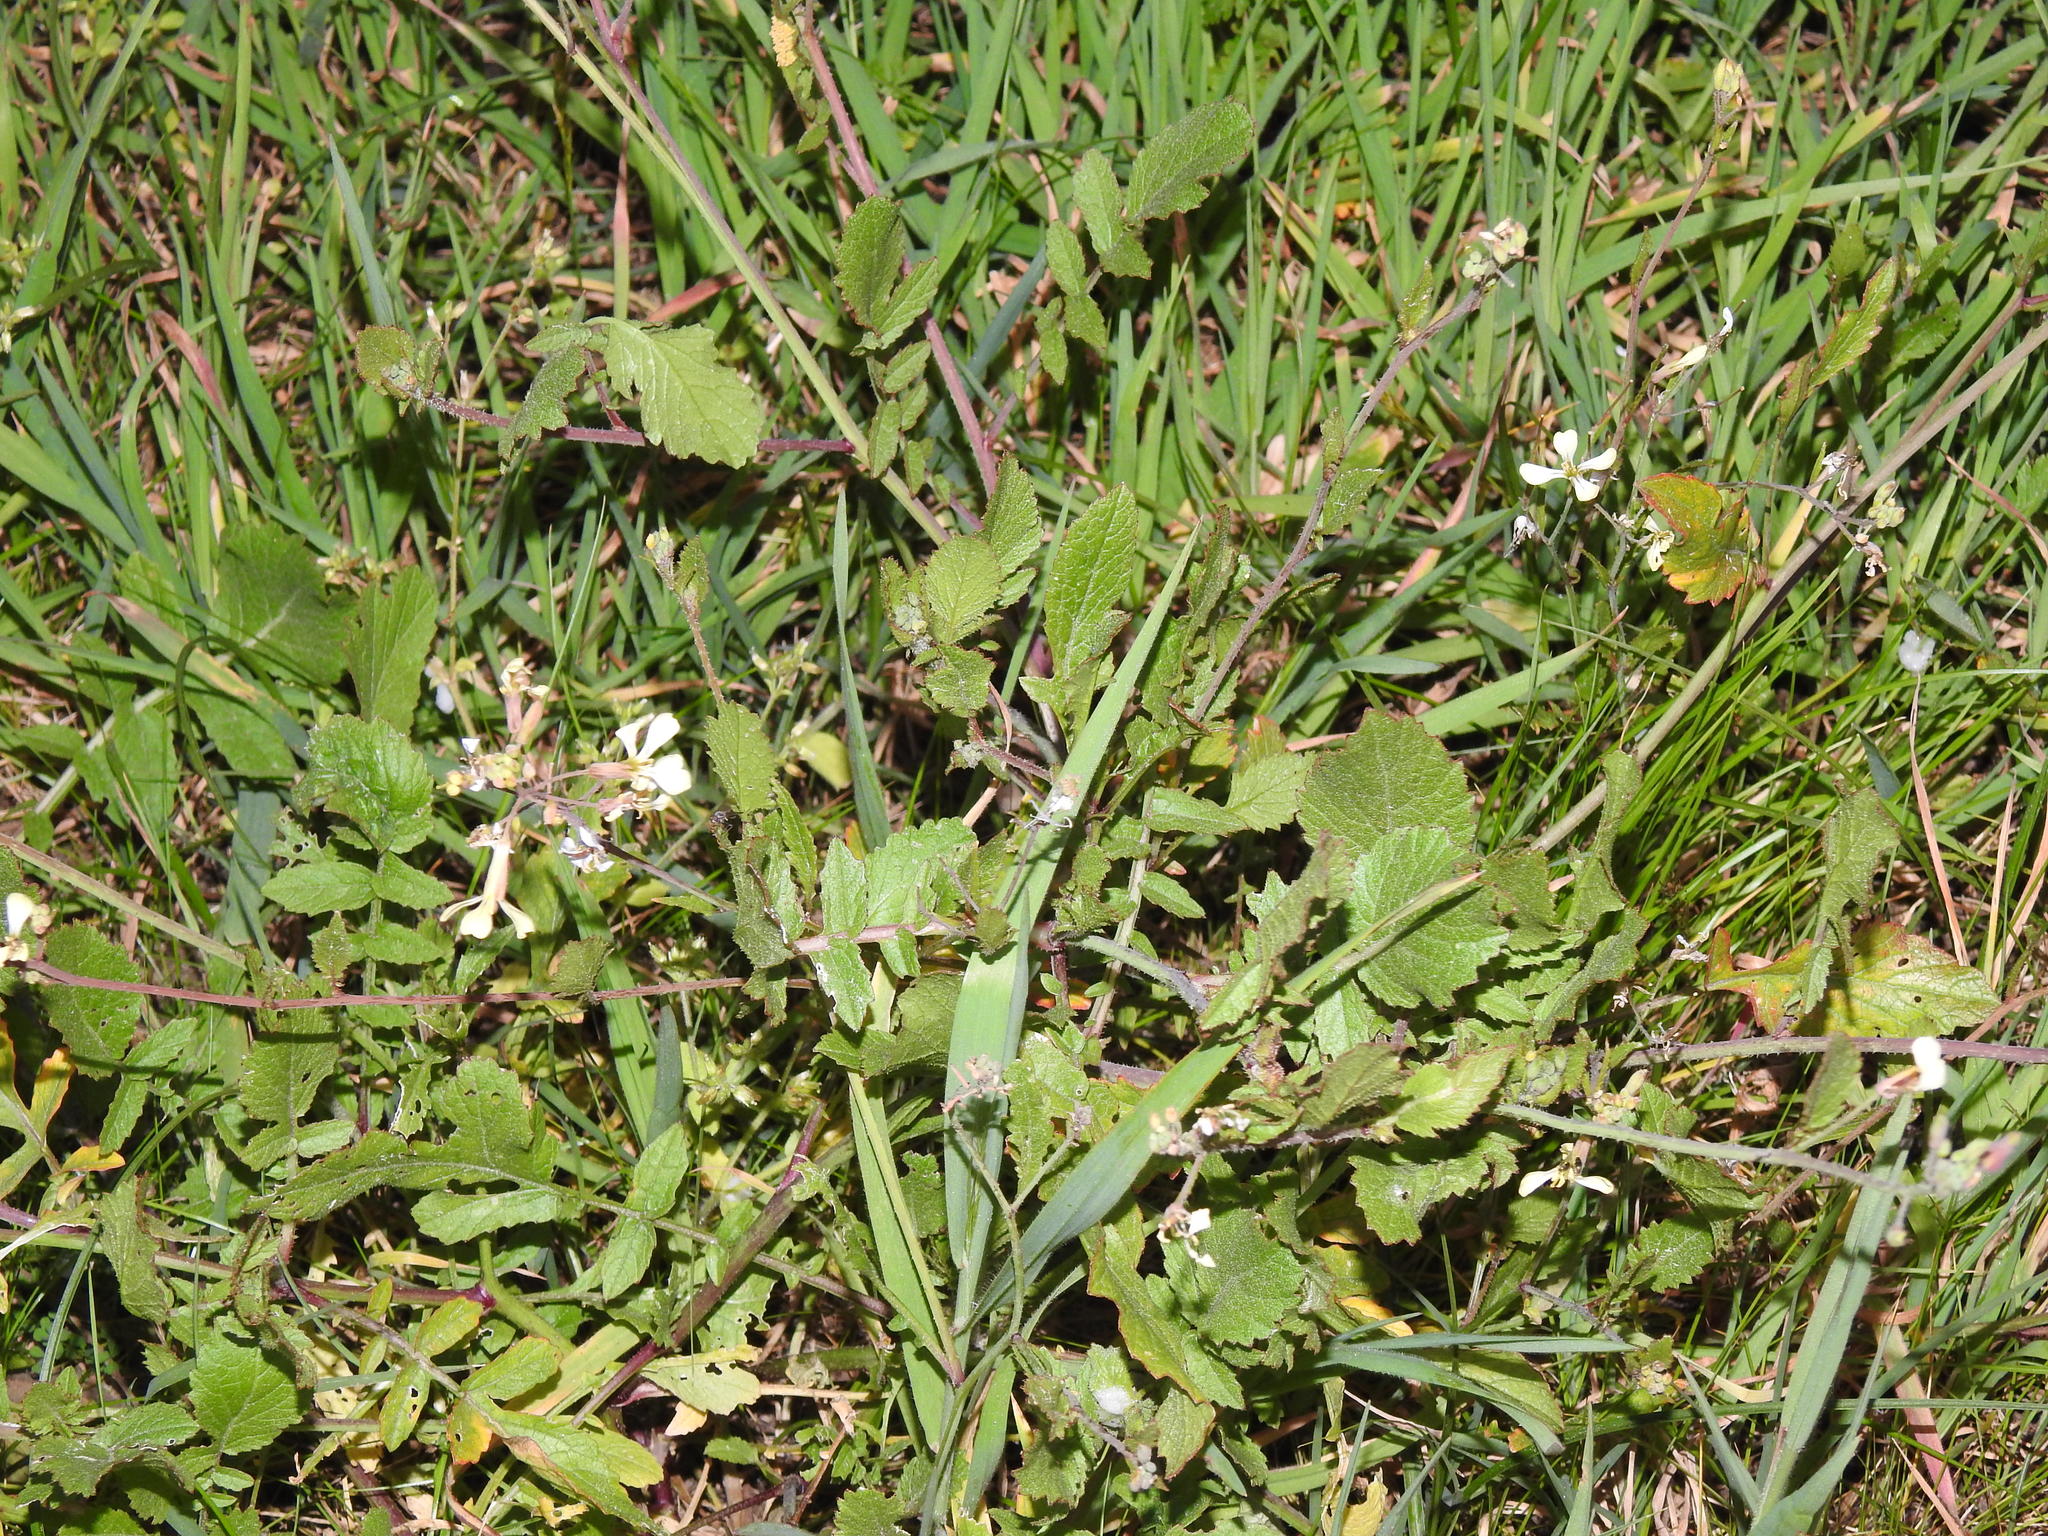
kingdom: Plantae
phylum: Tracheophyta
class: Magnoliopsida
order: Brassicales
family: Brassicaceae
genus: Raphanus
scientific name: Raphanus raphanistrum
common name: Wild radish
